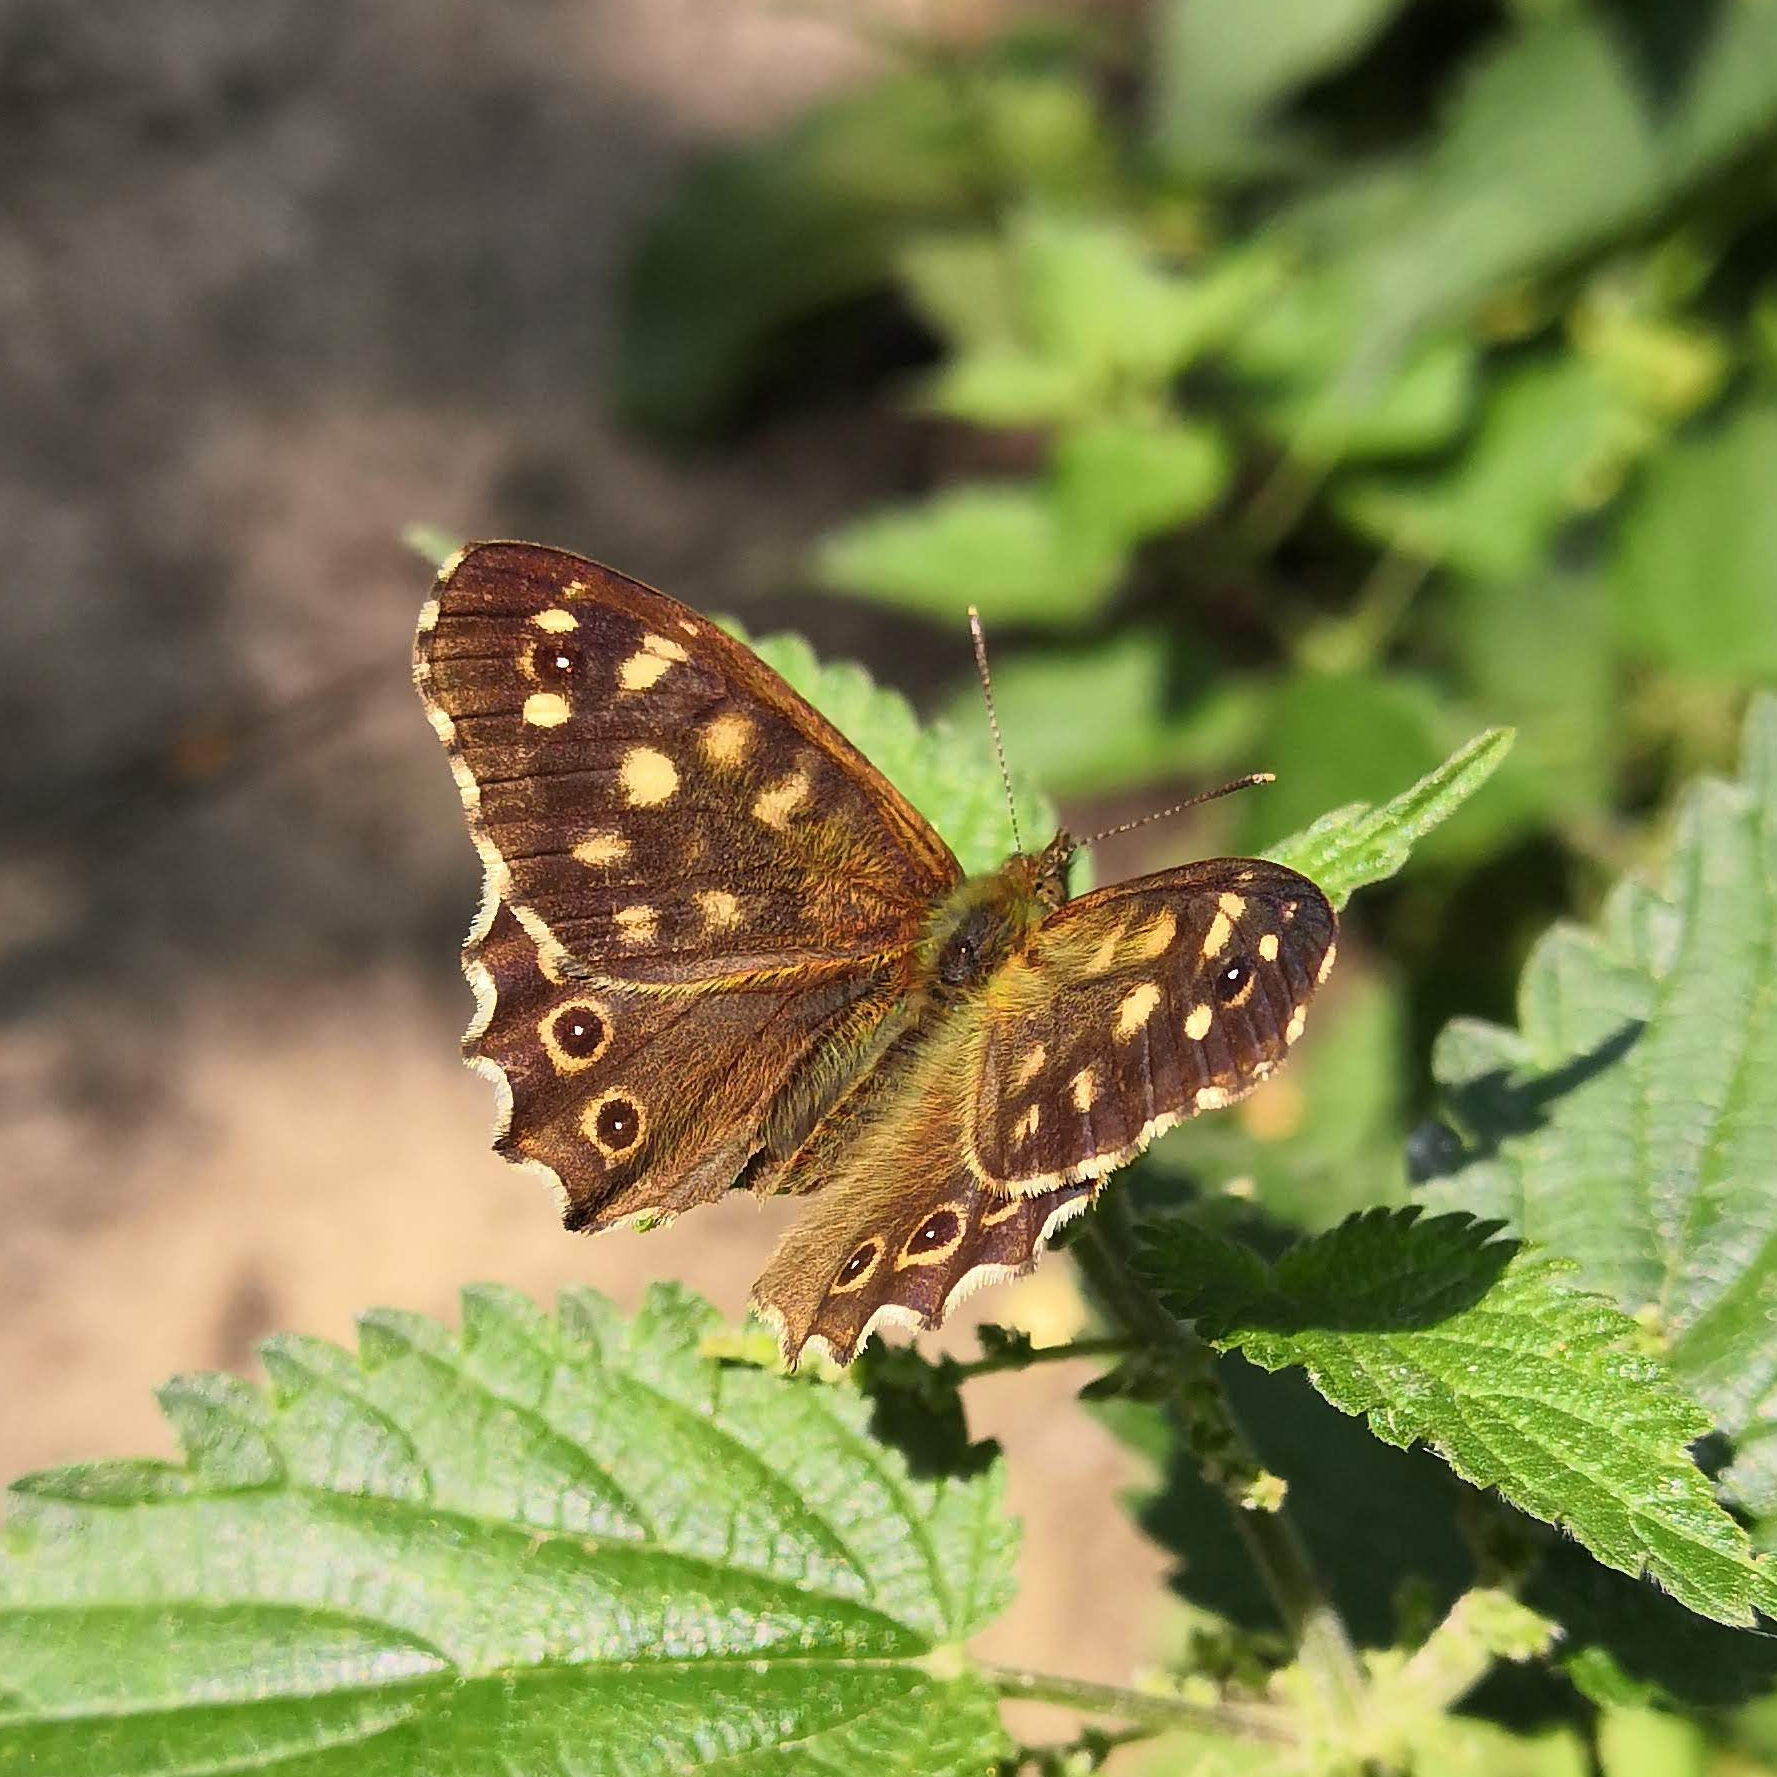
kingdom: Animalia
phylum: Arthropoda
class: Insecta
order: Lepidoptera
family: Nymphalidae
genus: Pararge
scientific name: Pararge aegeria
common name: Speckled wood
